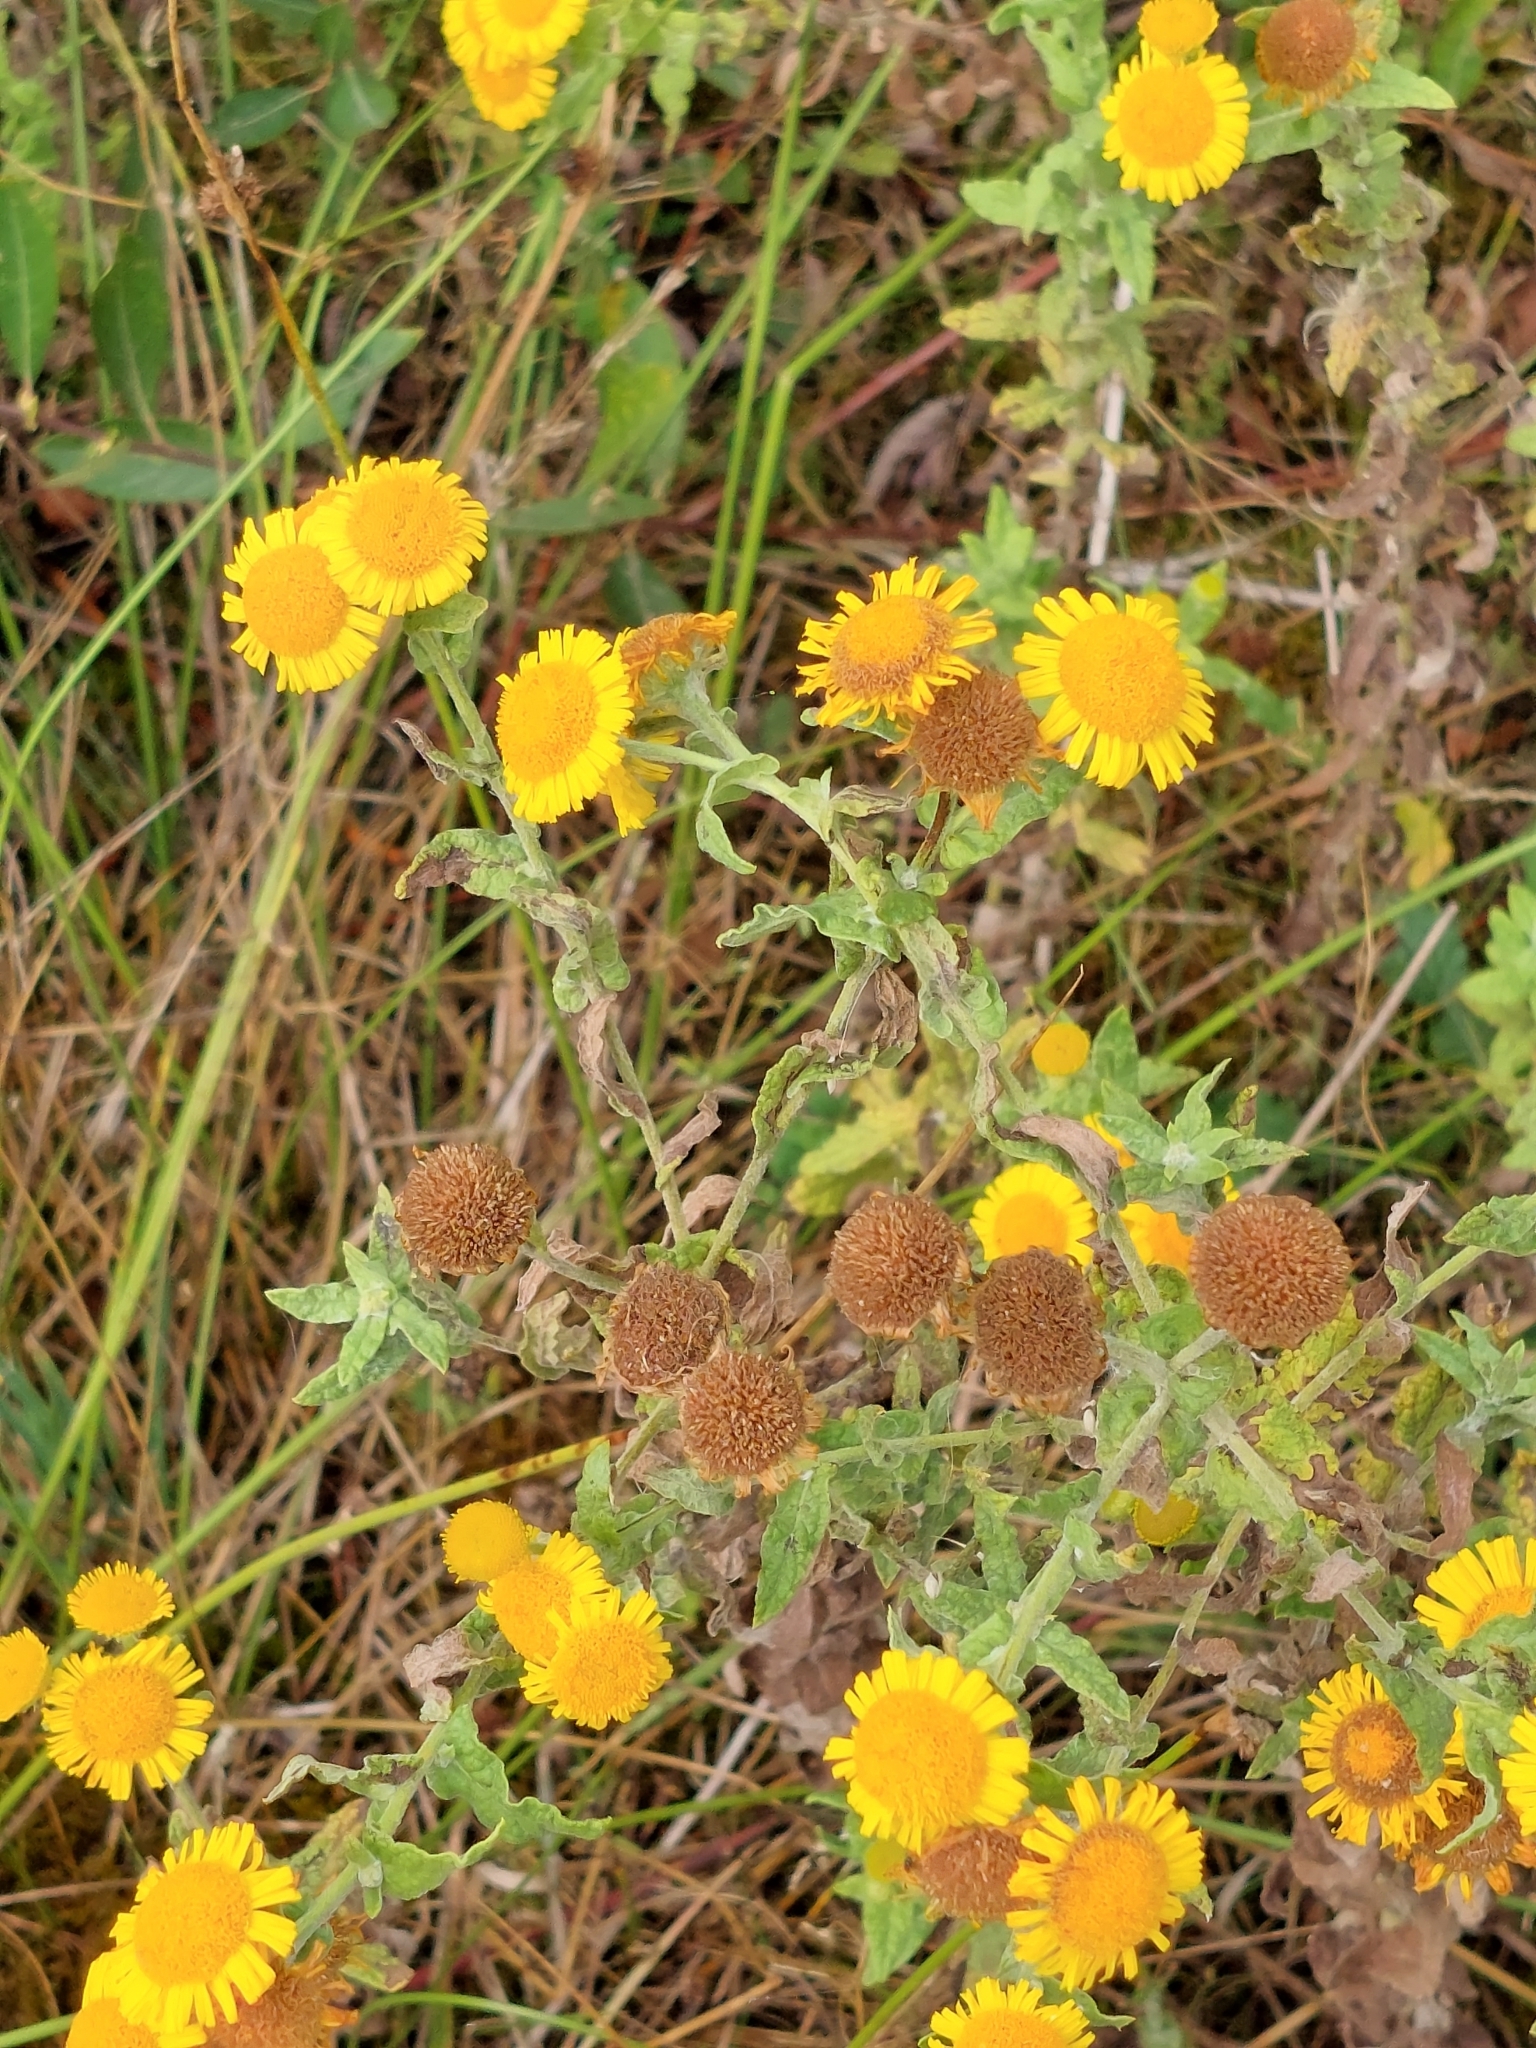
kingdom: Plantae
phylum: Tracheophyta
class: Magnoliopsida
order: Asterales
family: Asteraceae
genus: Pulicaria
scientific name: Pulicaria dysenterica
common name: Common fleabane
